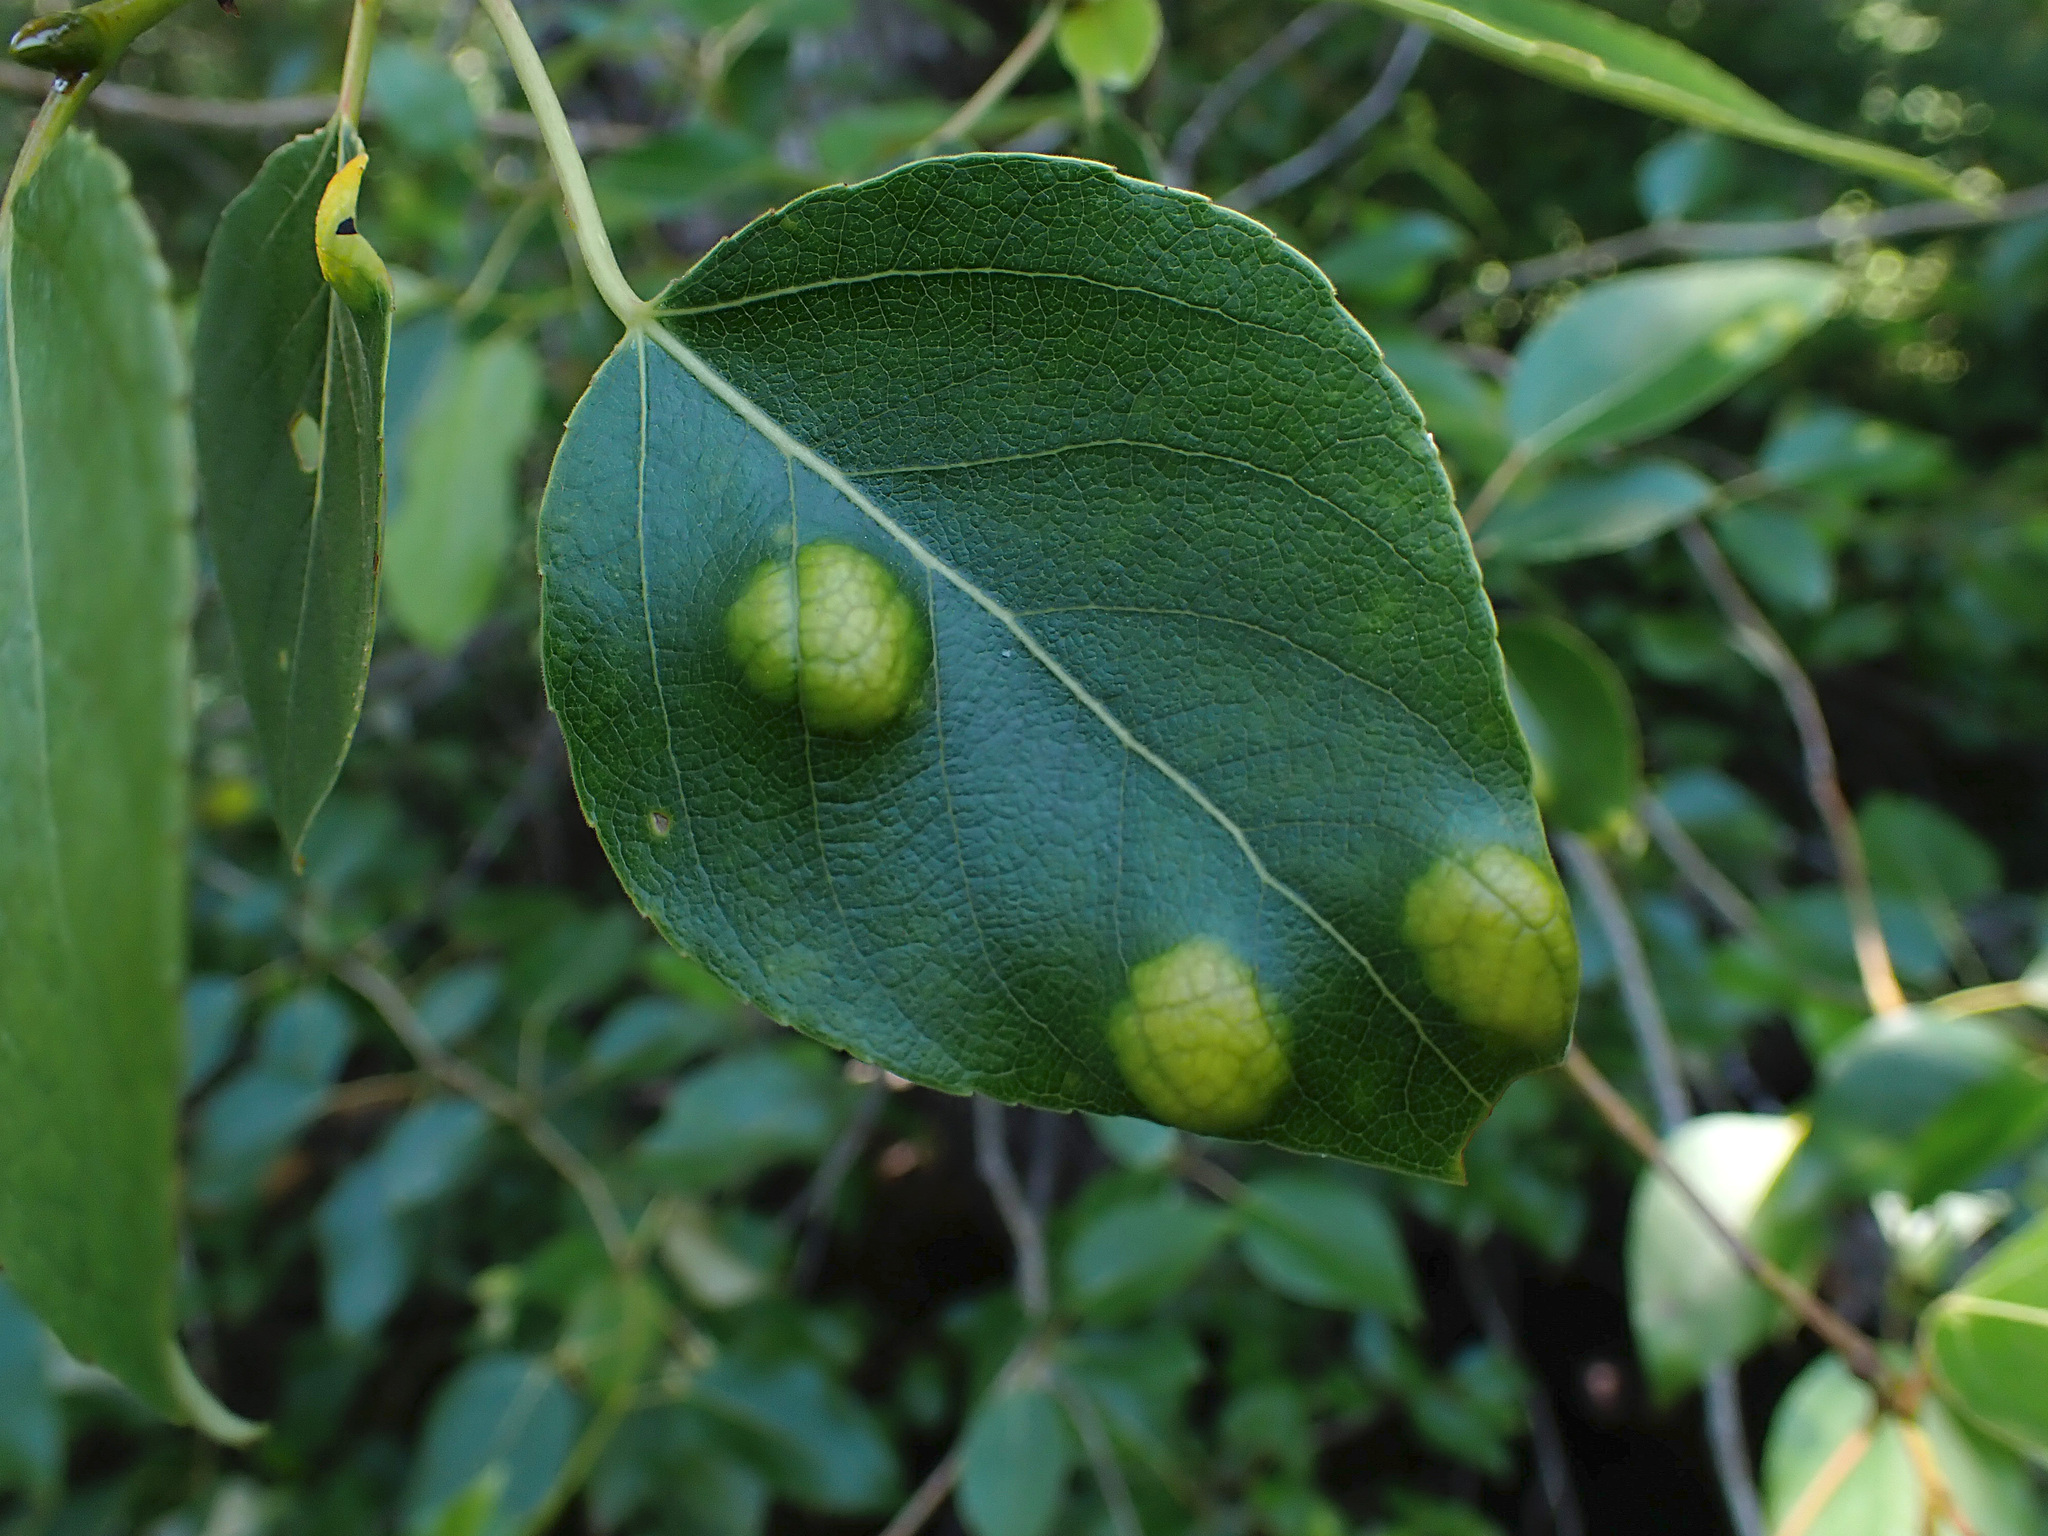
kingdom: Fungi
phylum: Ascomycota
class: Taphrinomycetes
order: Taphrinales
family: Taphrinaceae
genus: Taphrina
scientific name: Taphrina populi-salicis
